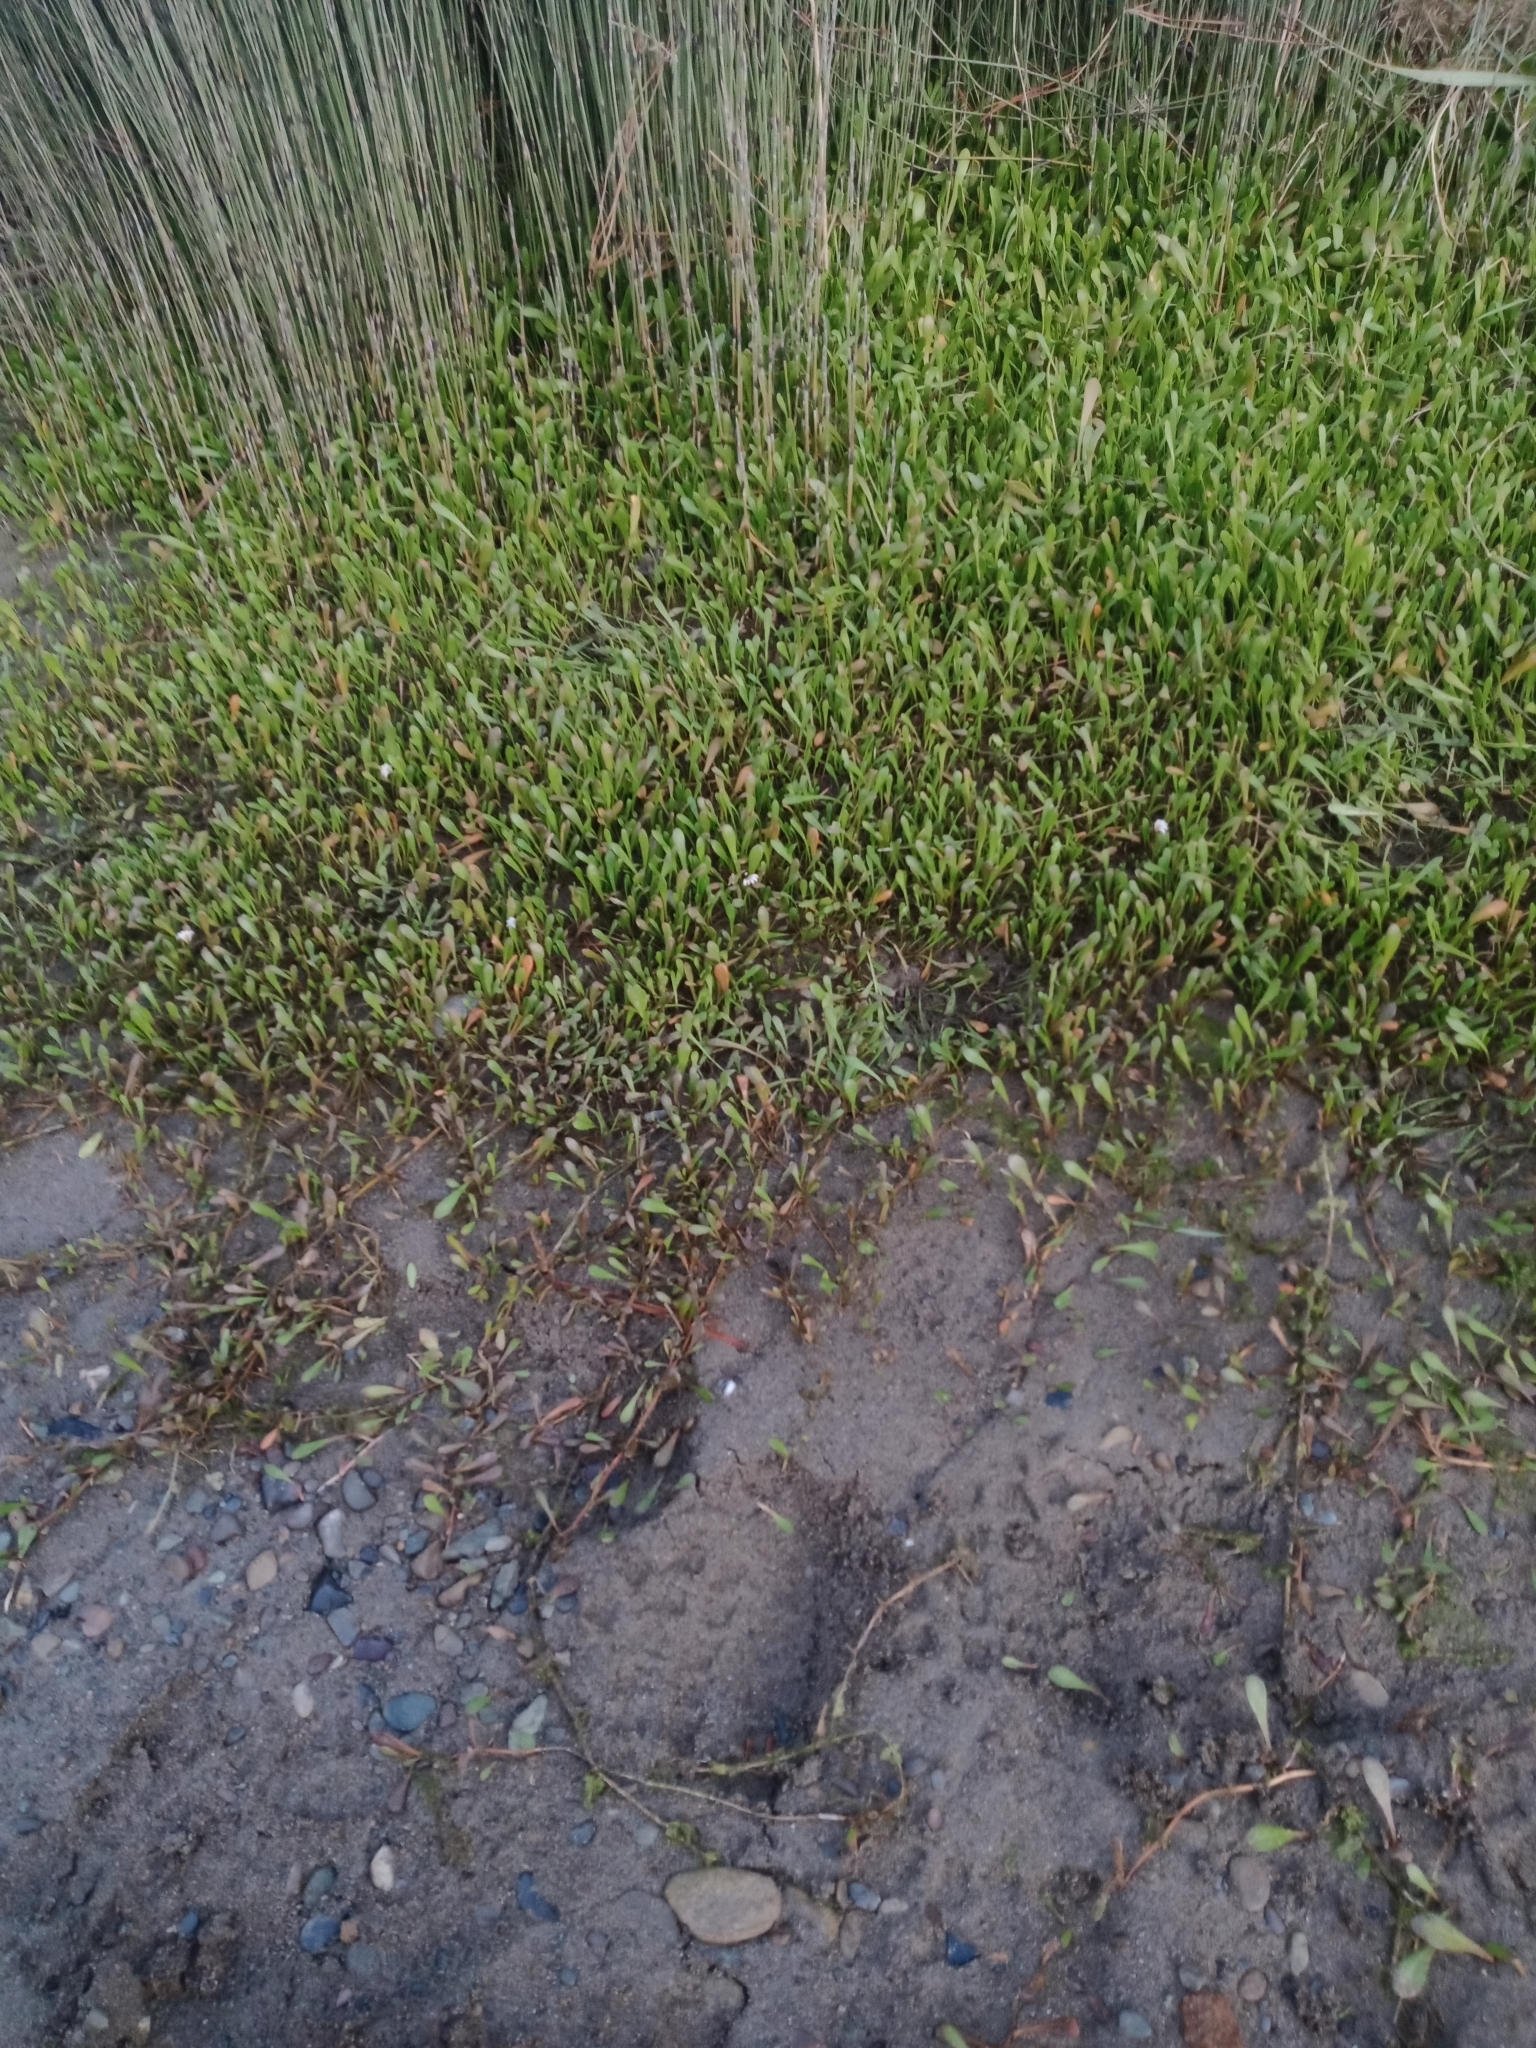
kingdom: Plantae
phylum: Tracheophyta
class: Magnoliopsida
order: Asterales
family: Goodeniaceae
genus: Goodenia
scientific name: Goodenia radicans
